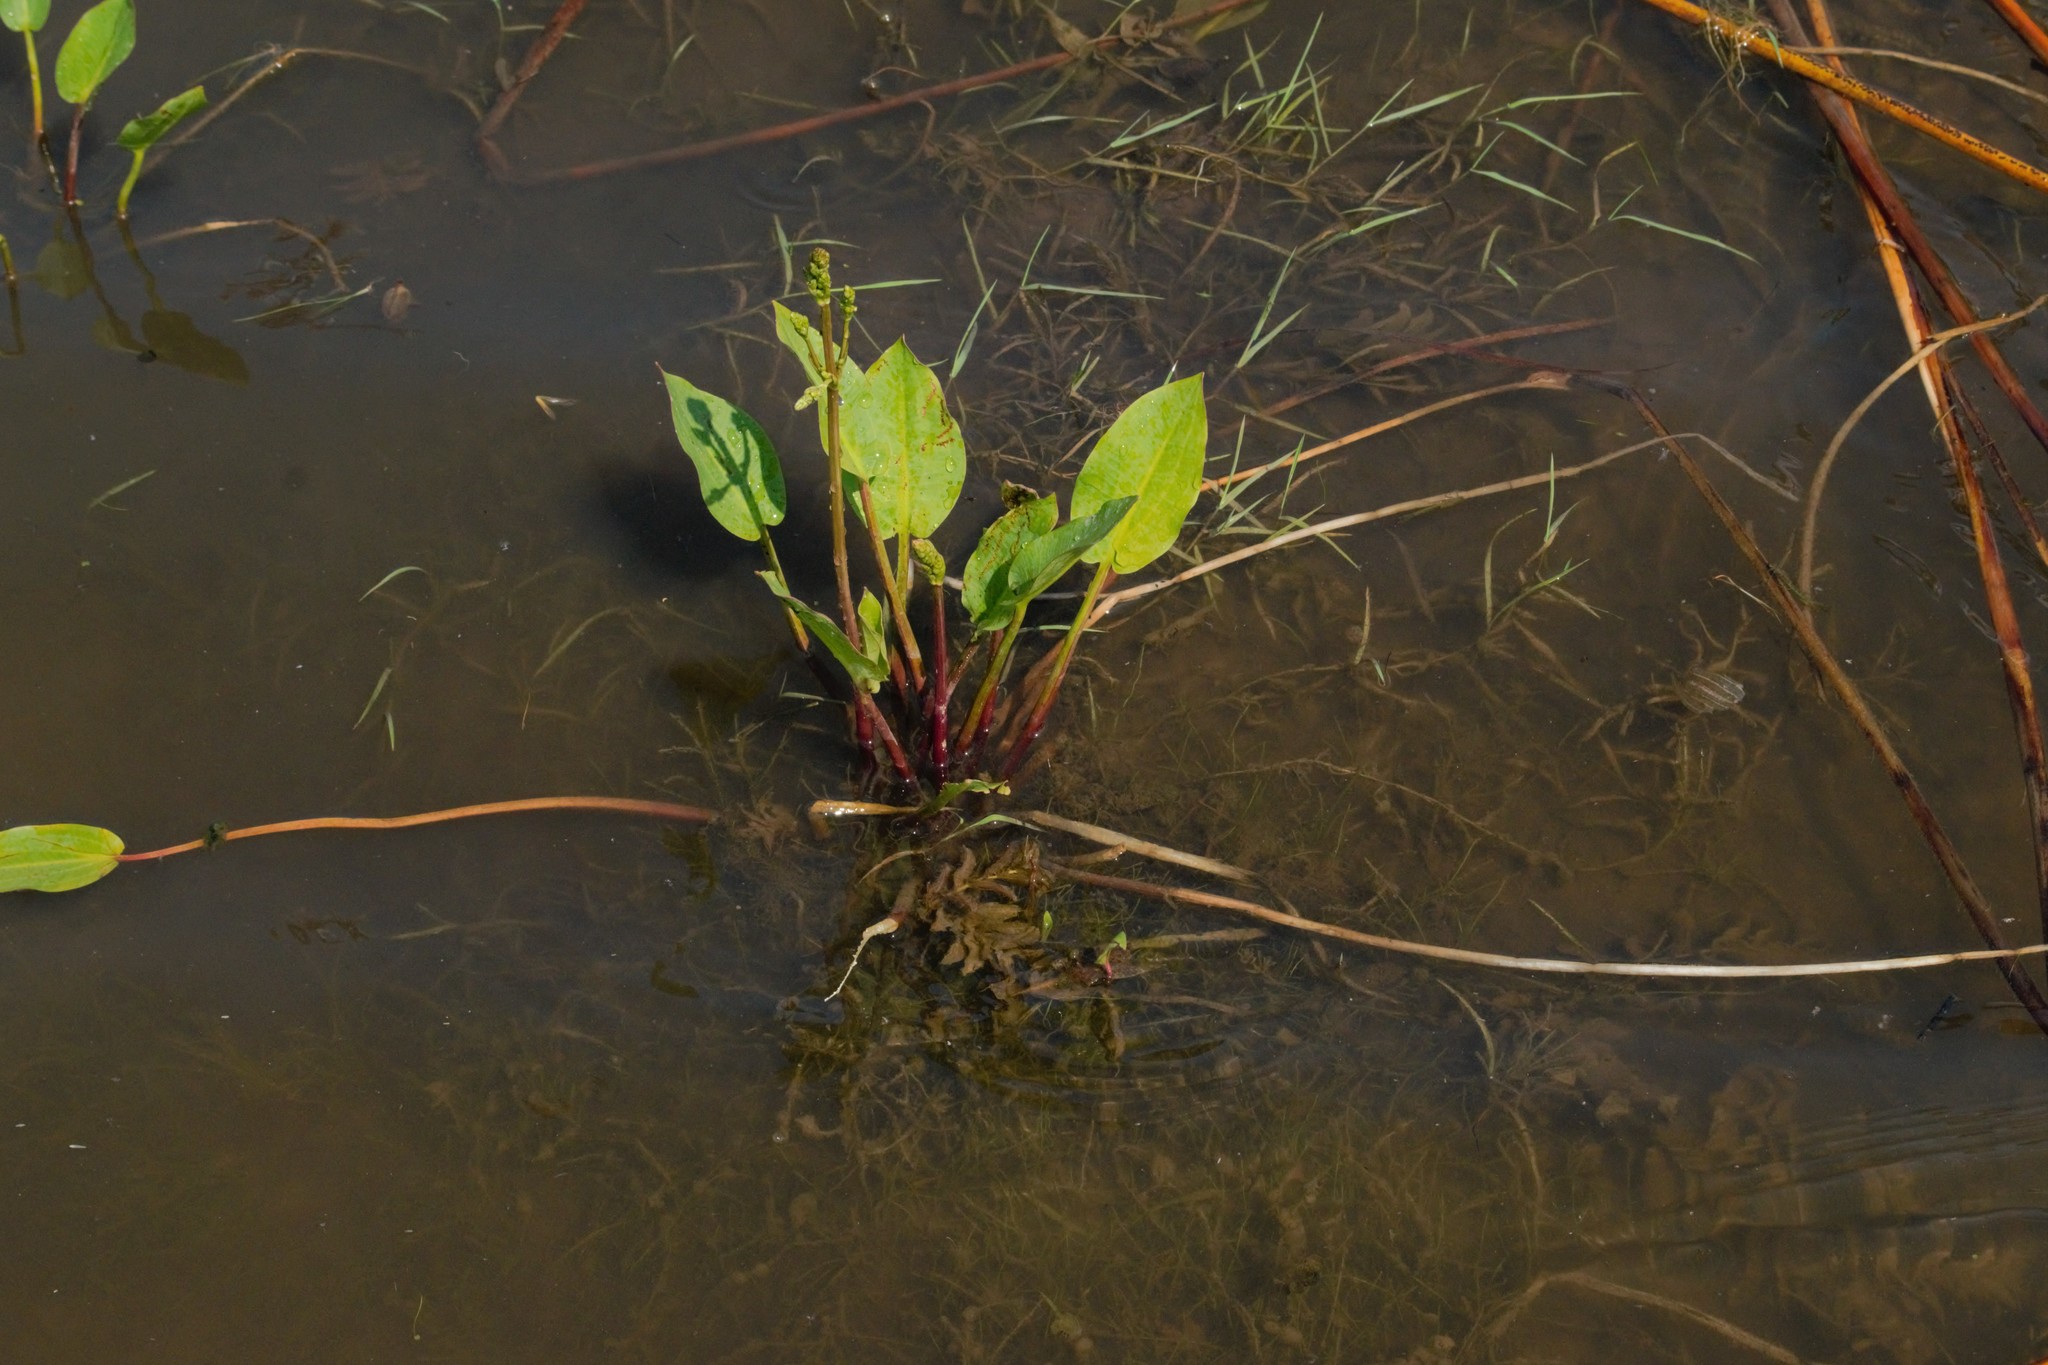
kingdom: Plantae
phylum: Tracheophyta
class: Liliopsida
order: Alismatales
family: Alismataceae
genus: Alisma
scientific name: Alisma plantago-aquatica
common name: Water-plantain
